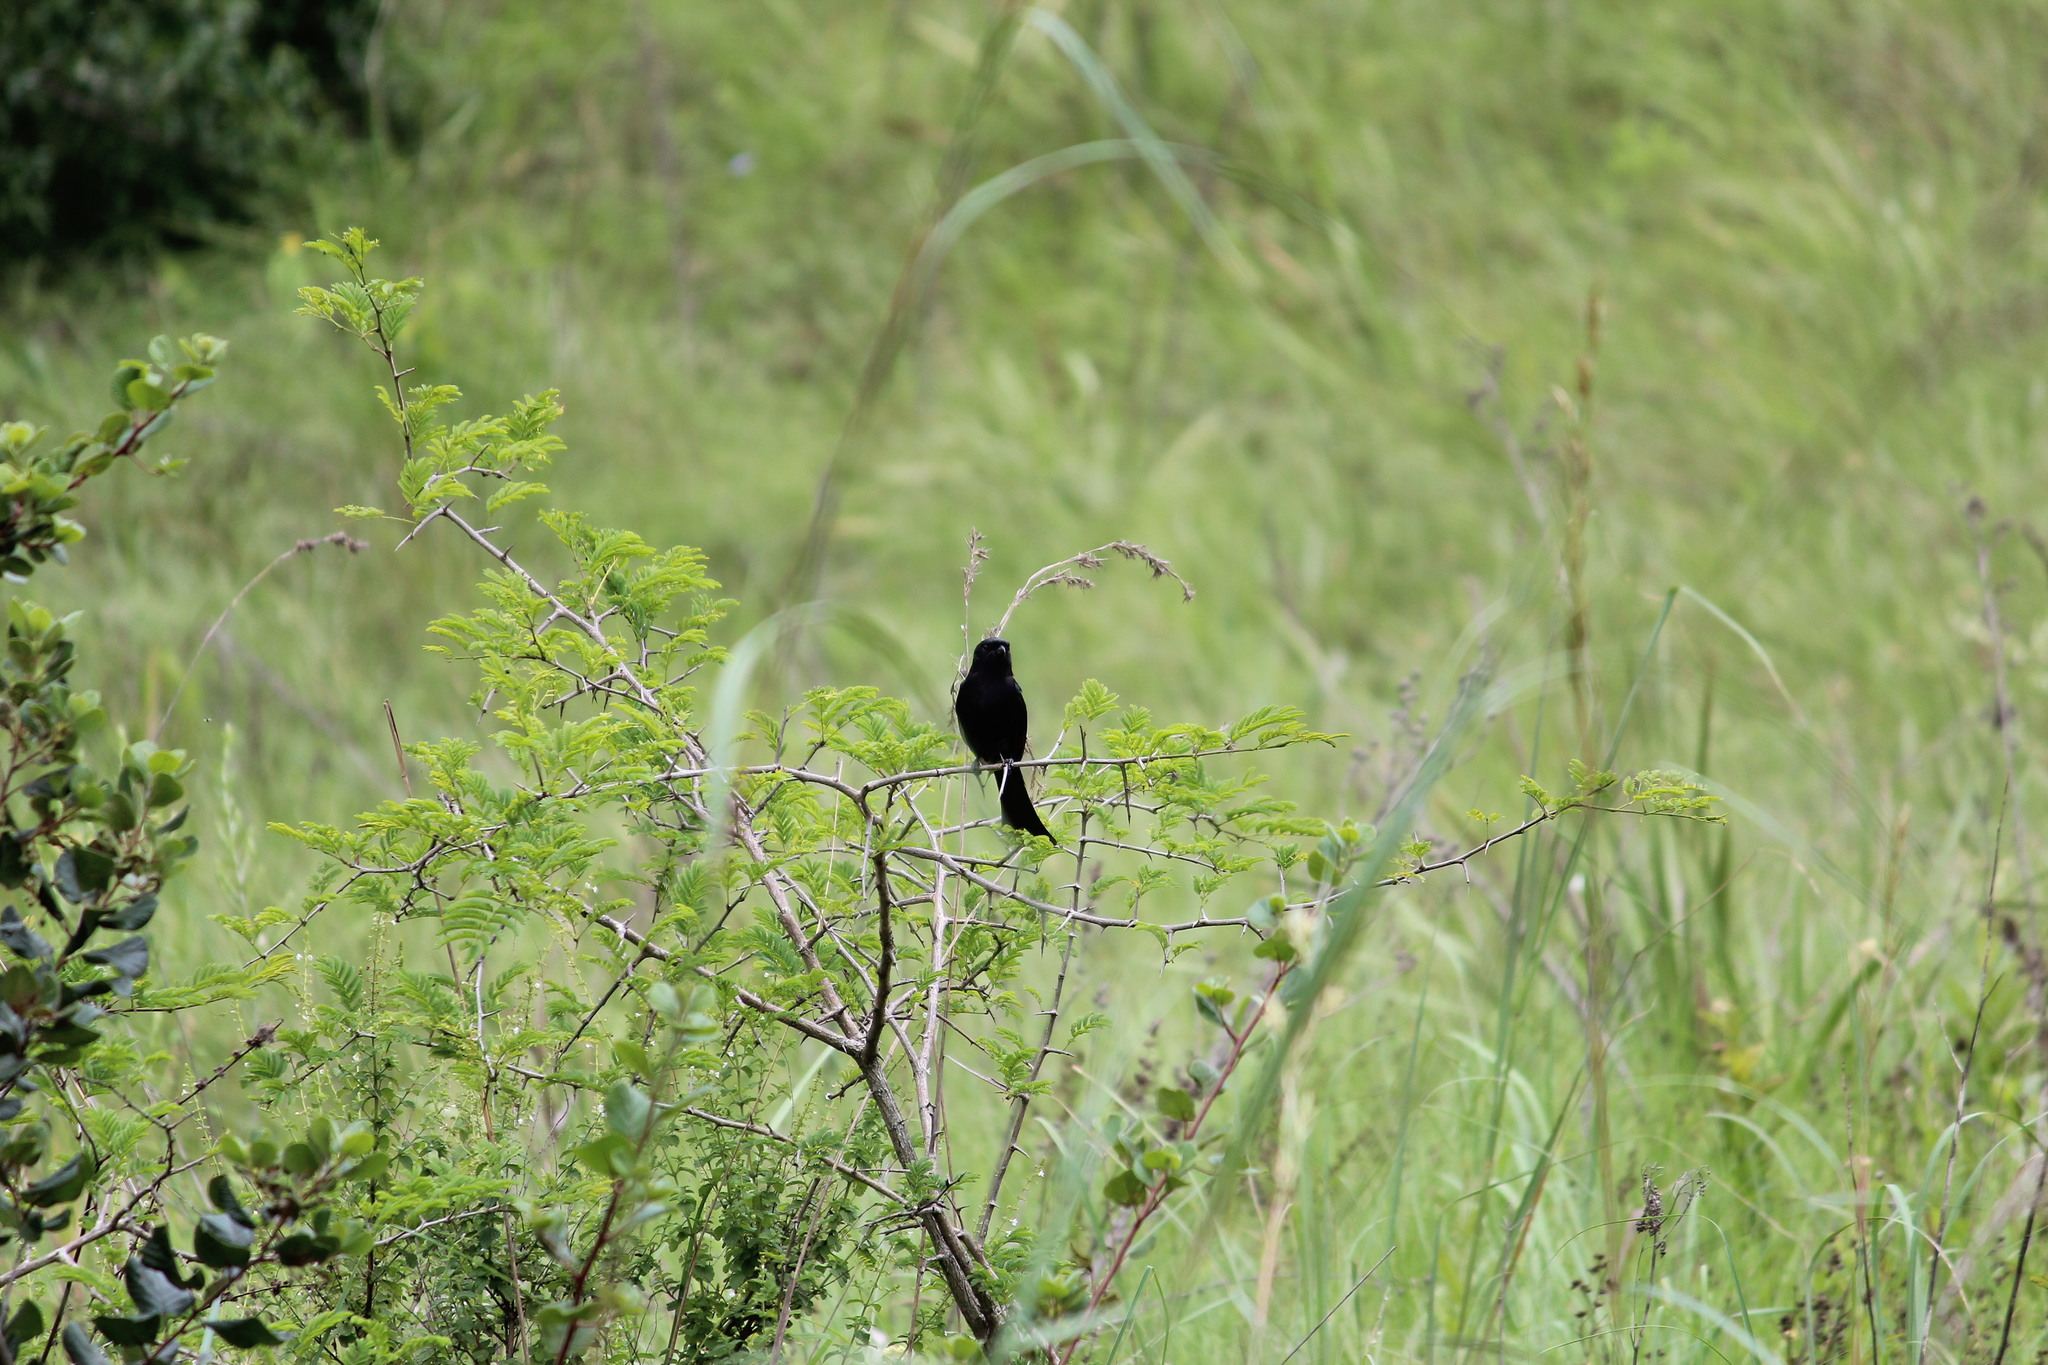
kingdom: Animalia
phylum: Chordata
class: Aves
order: Passeriformes
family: Dicruridae
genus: Dicrurus
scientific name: Dicrurus adsimilis
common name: Fork-tailed drongo
